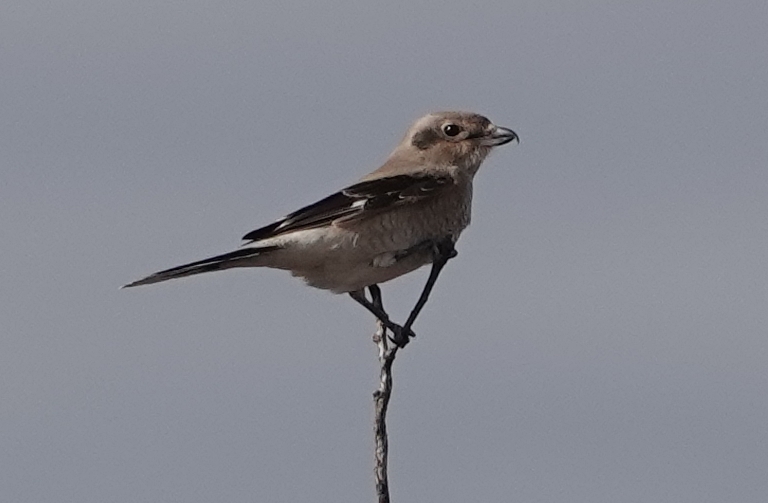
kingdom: Animalia
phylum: Chordata
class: Aves
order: Passeriformes
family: Laniidae
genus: Lanius
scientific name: Lanius borealis
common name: Northern shrike
